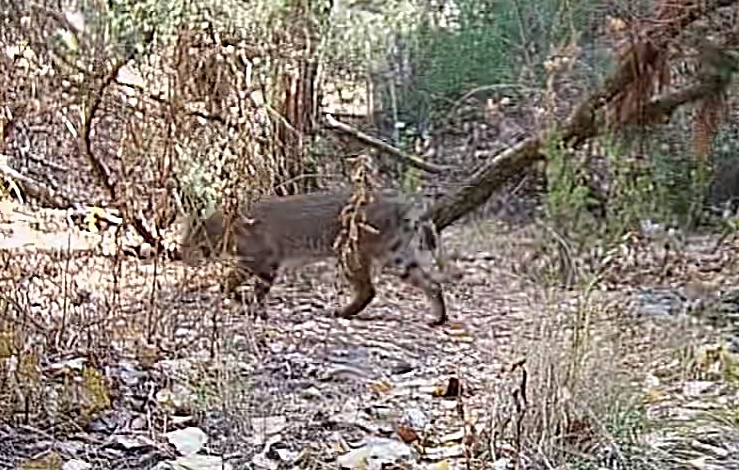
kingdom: Animalia
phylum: Chordata
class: Mammalia
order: Carnivora
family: Felidae
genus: Lynx
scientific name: Lynx rufus
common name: Bobcat
